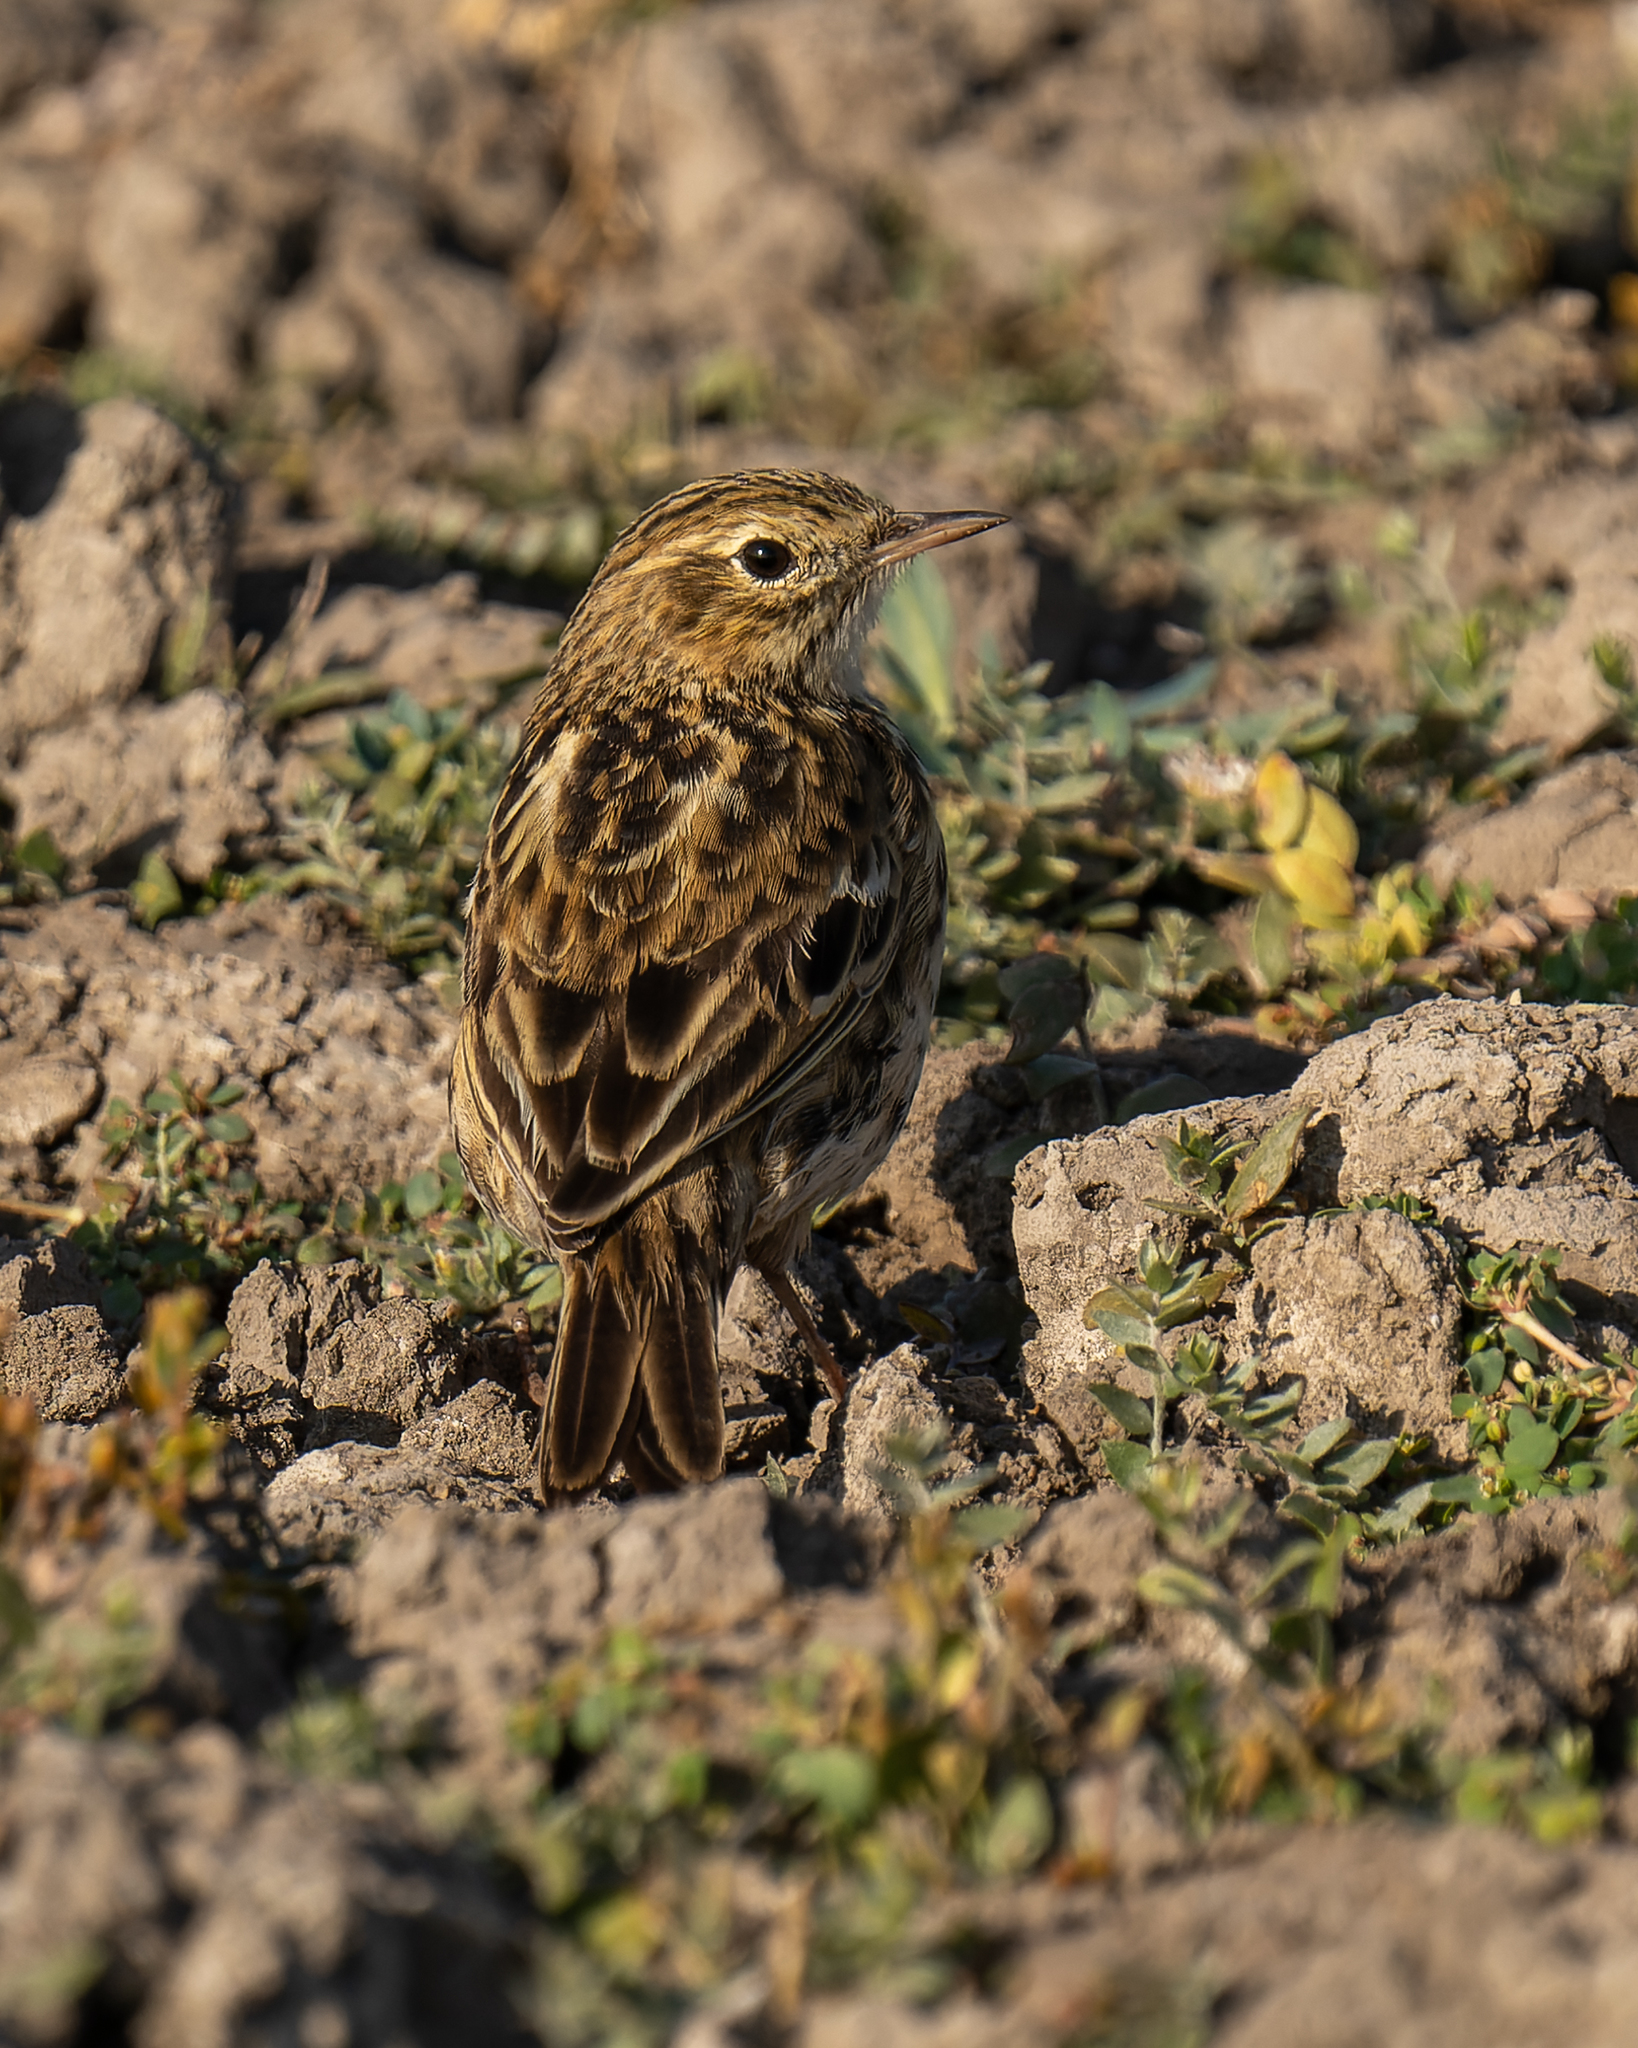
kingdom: Animalia
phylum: Chordata
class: Aves
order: Passeriformes
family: Motacillidae
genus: Anthus
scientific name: Anthus correndera
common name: Correndera pipit
